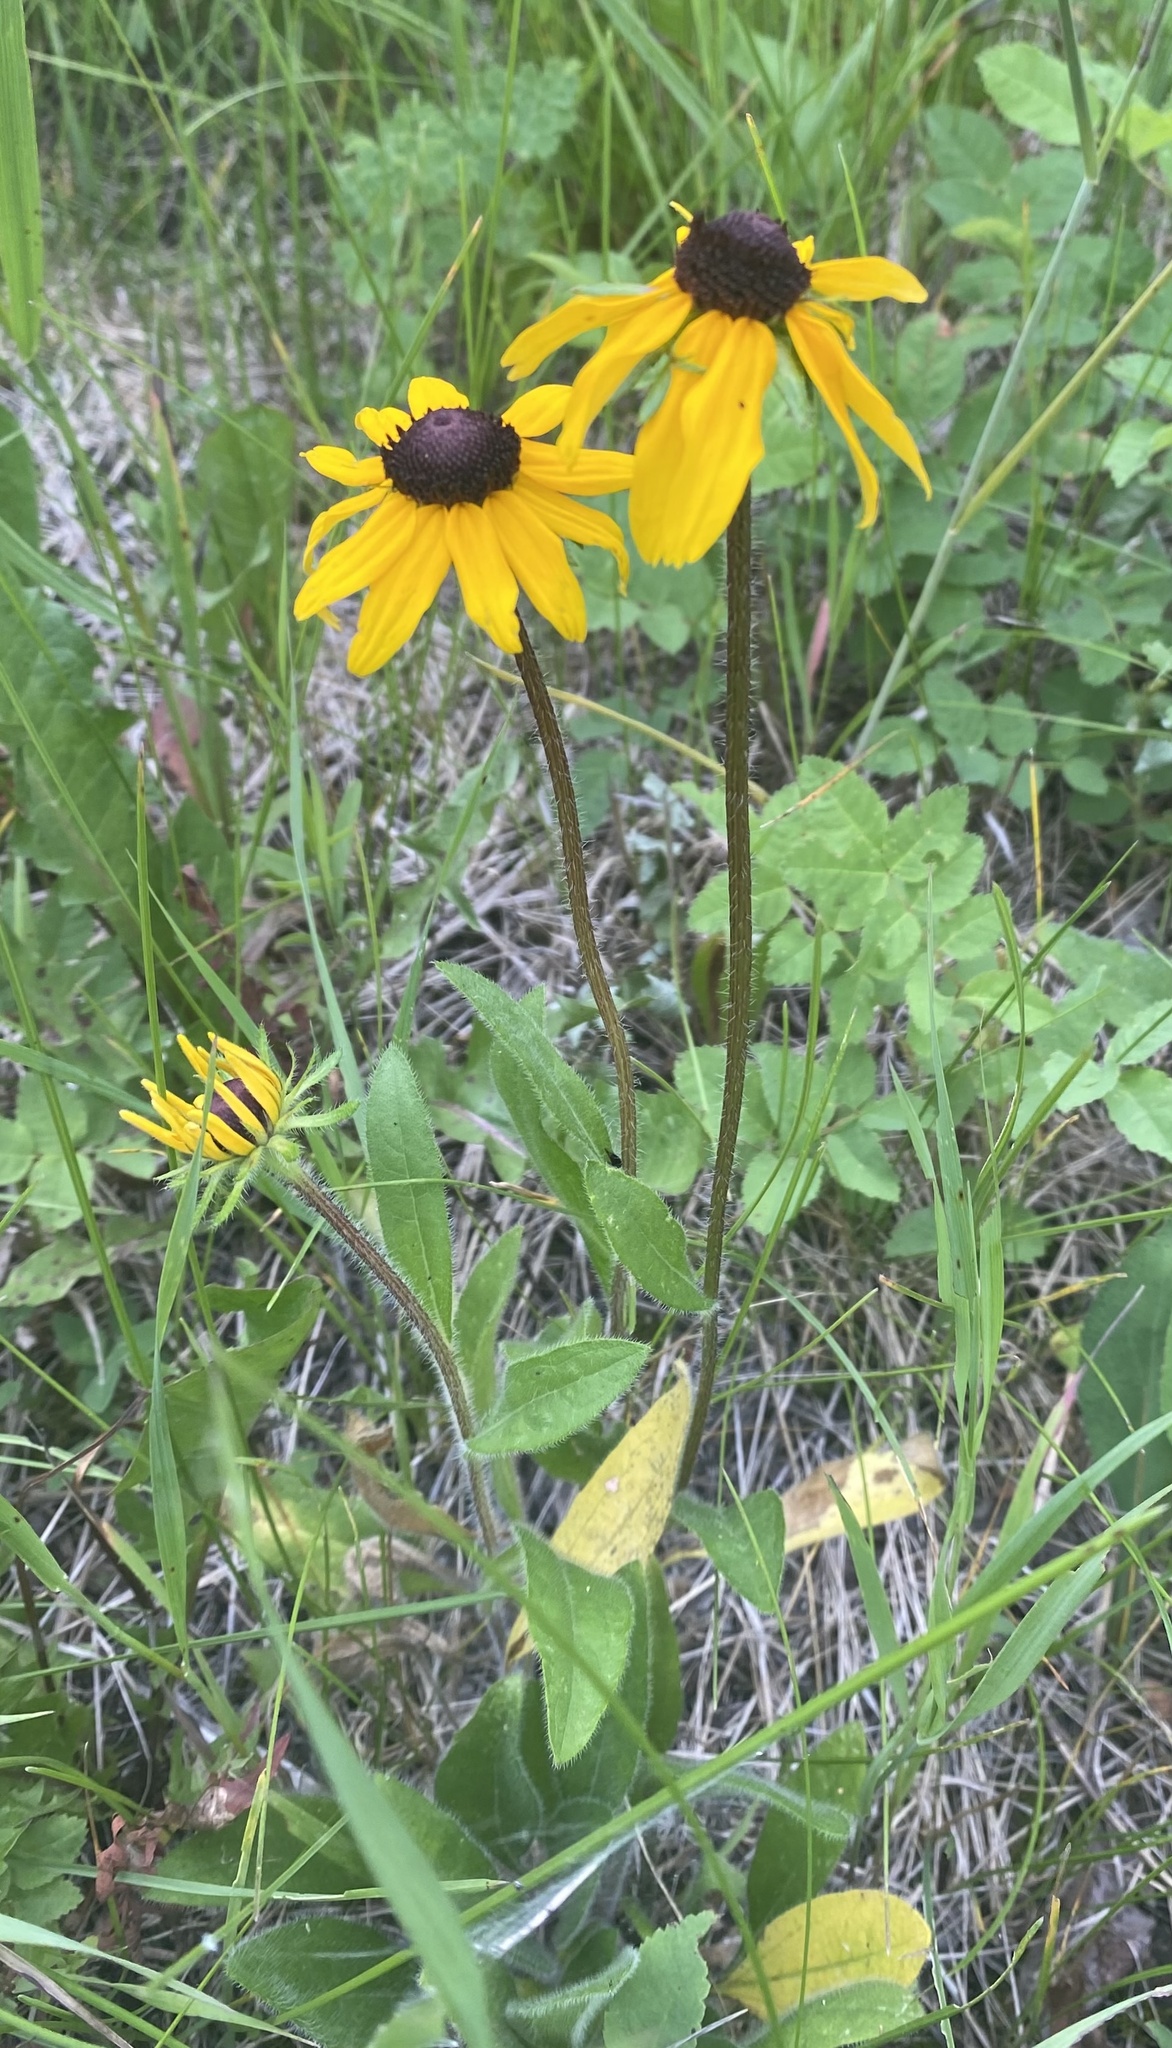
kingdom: Plantae
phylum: Tracheophyta
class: Magnoliopsida
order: Asterales
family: Asteraceae
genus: Rudbeckia
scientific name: Rudbeckia hirta
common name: Black-eyed-susan
